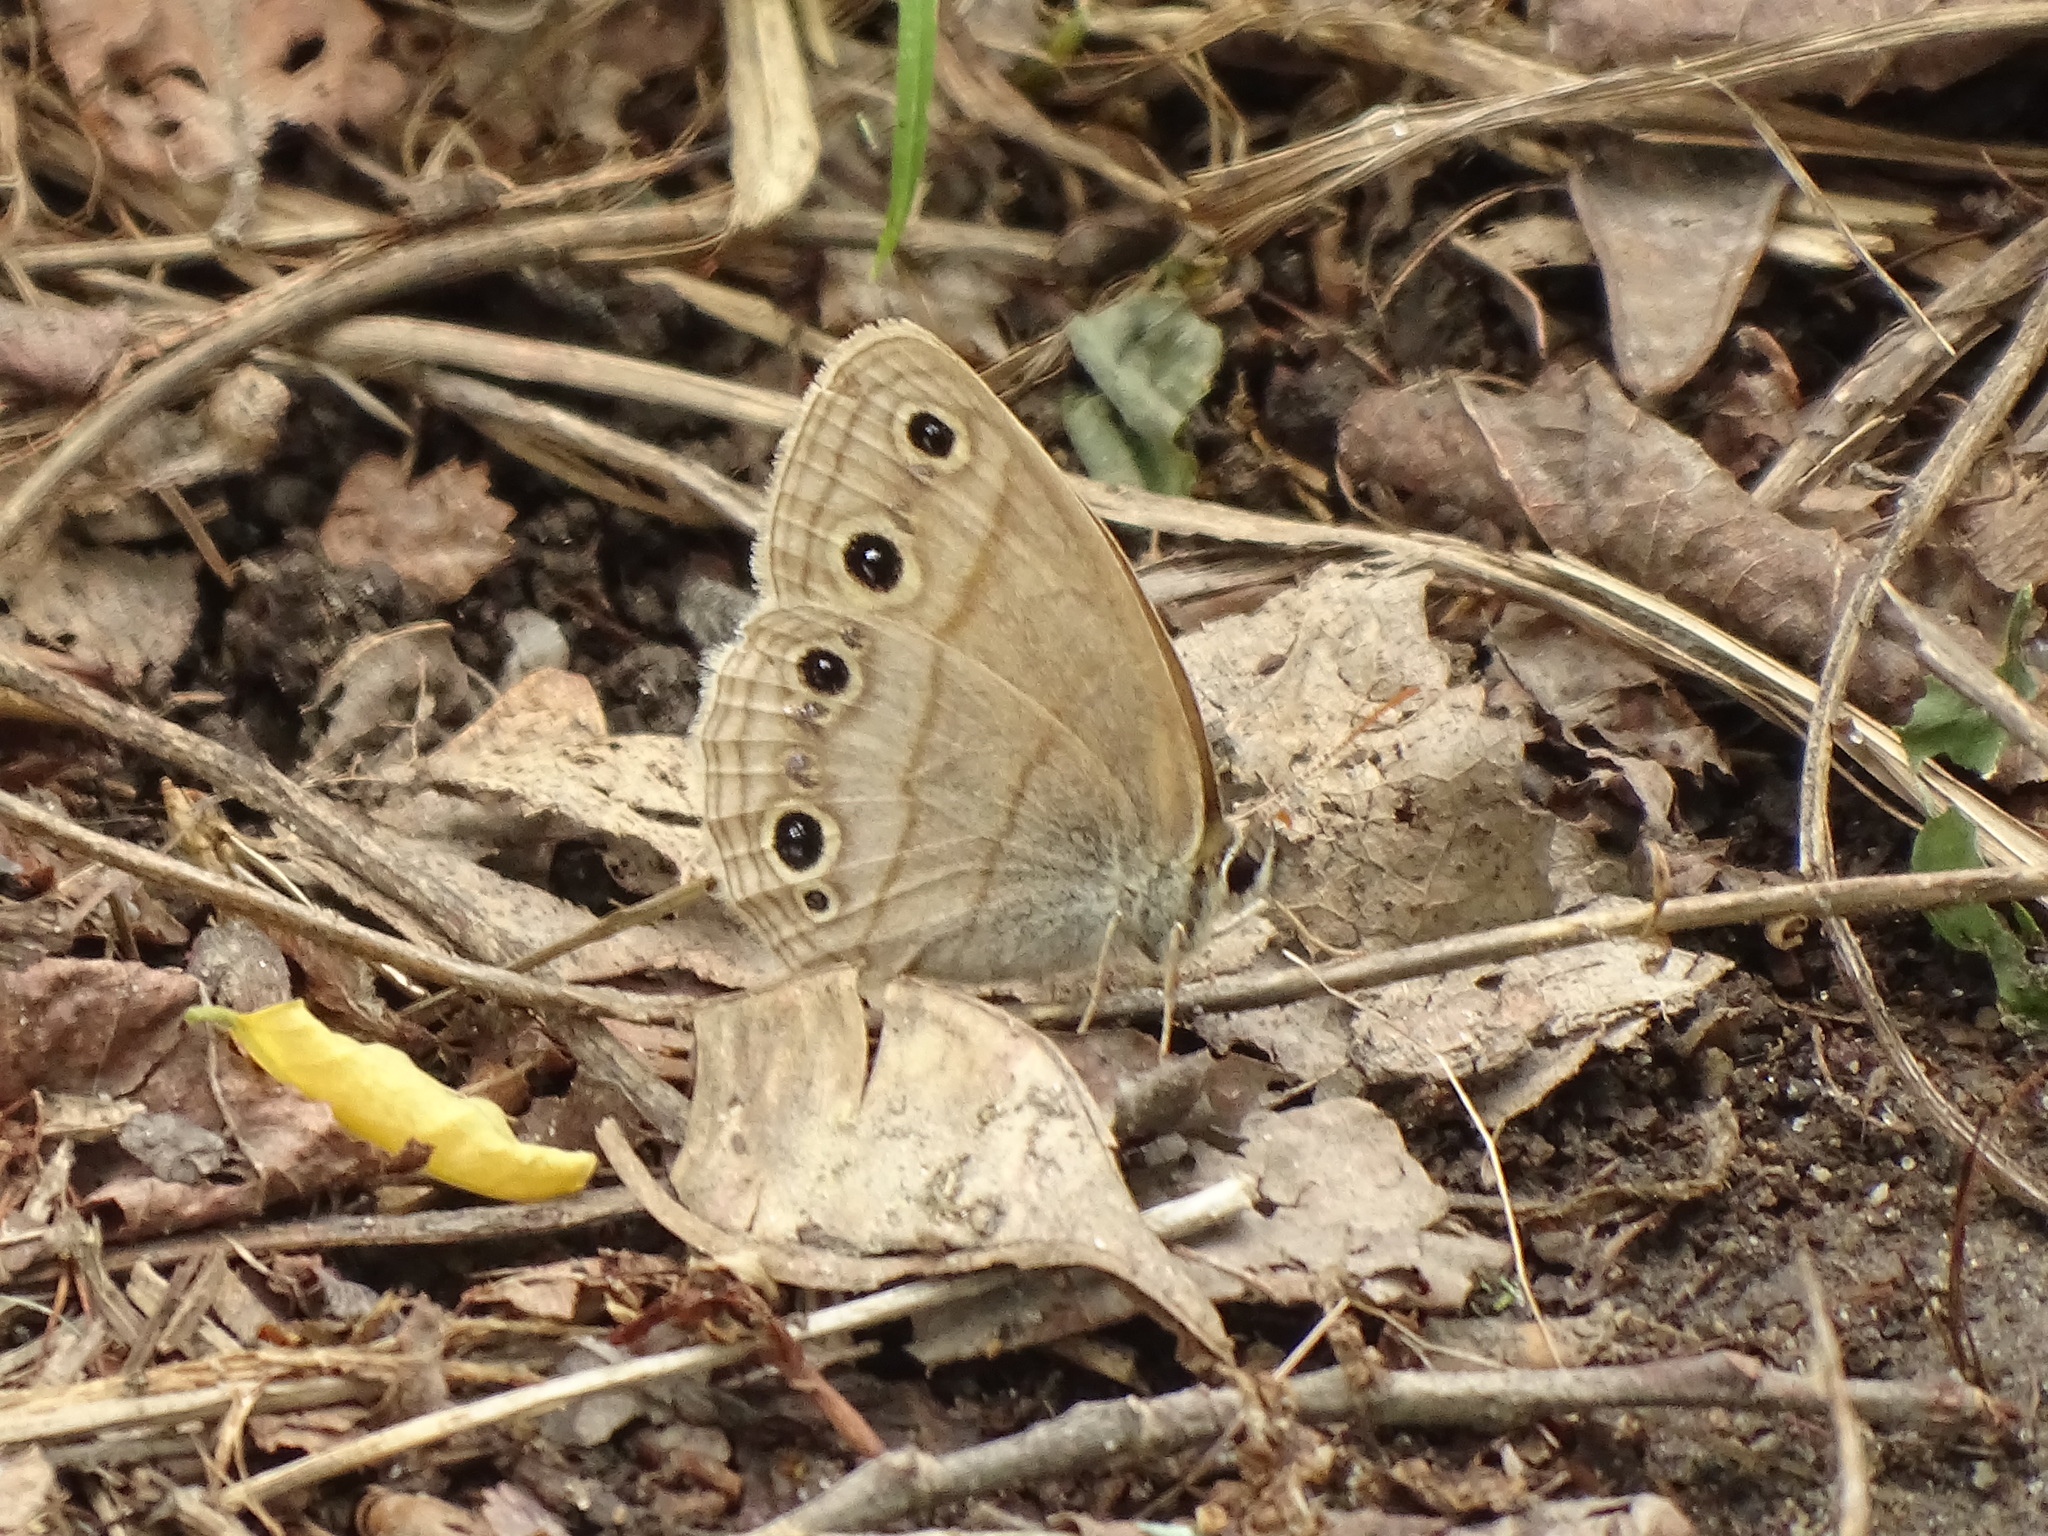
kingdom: Animalia
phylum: Arthropoda
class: Insecta
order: Lepidoptera
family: Nymphalidae
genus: Euptychia
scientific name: Euptychia cymela
